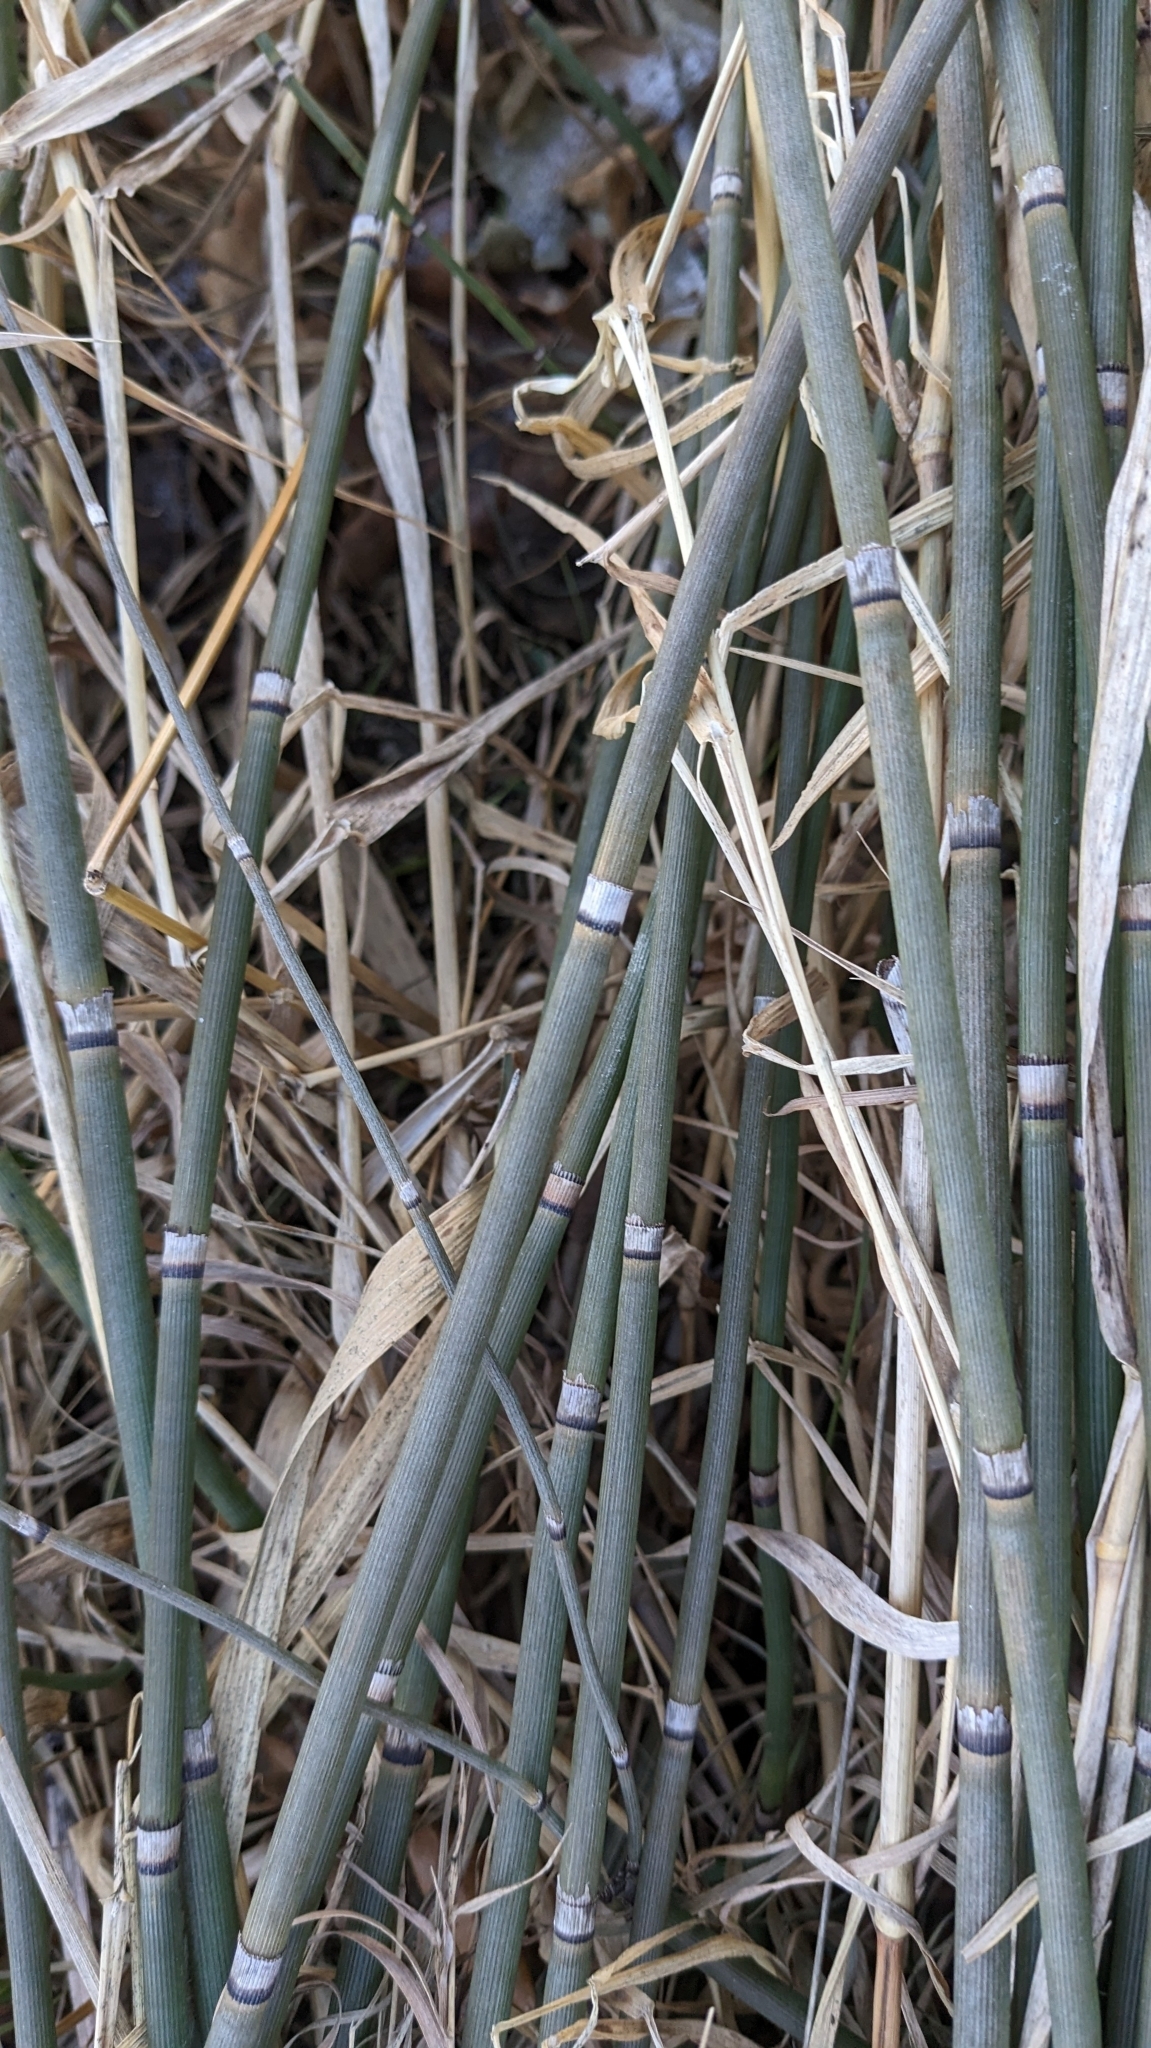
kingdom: Plantae
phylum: Tracheophyta
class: Polypodiopsida
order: Equisetales
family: Equisetaceae
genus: Equisetum
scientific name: Equisetum hyemale
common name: Rough horsetail
